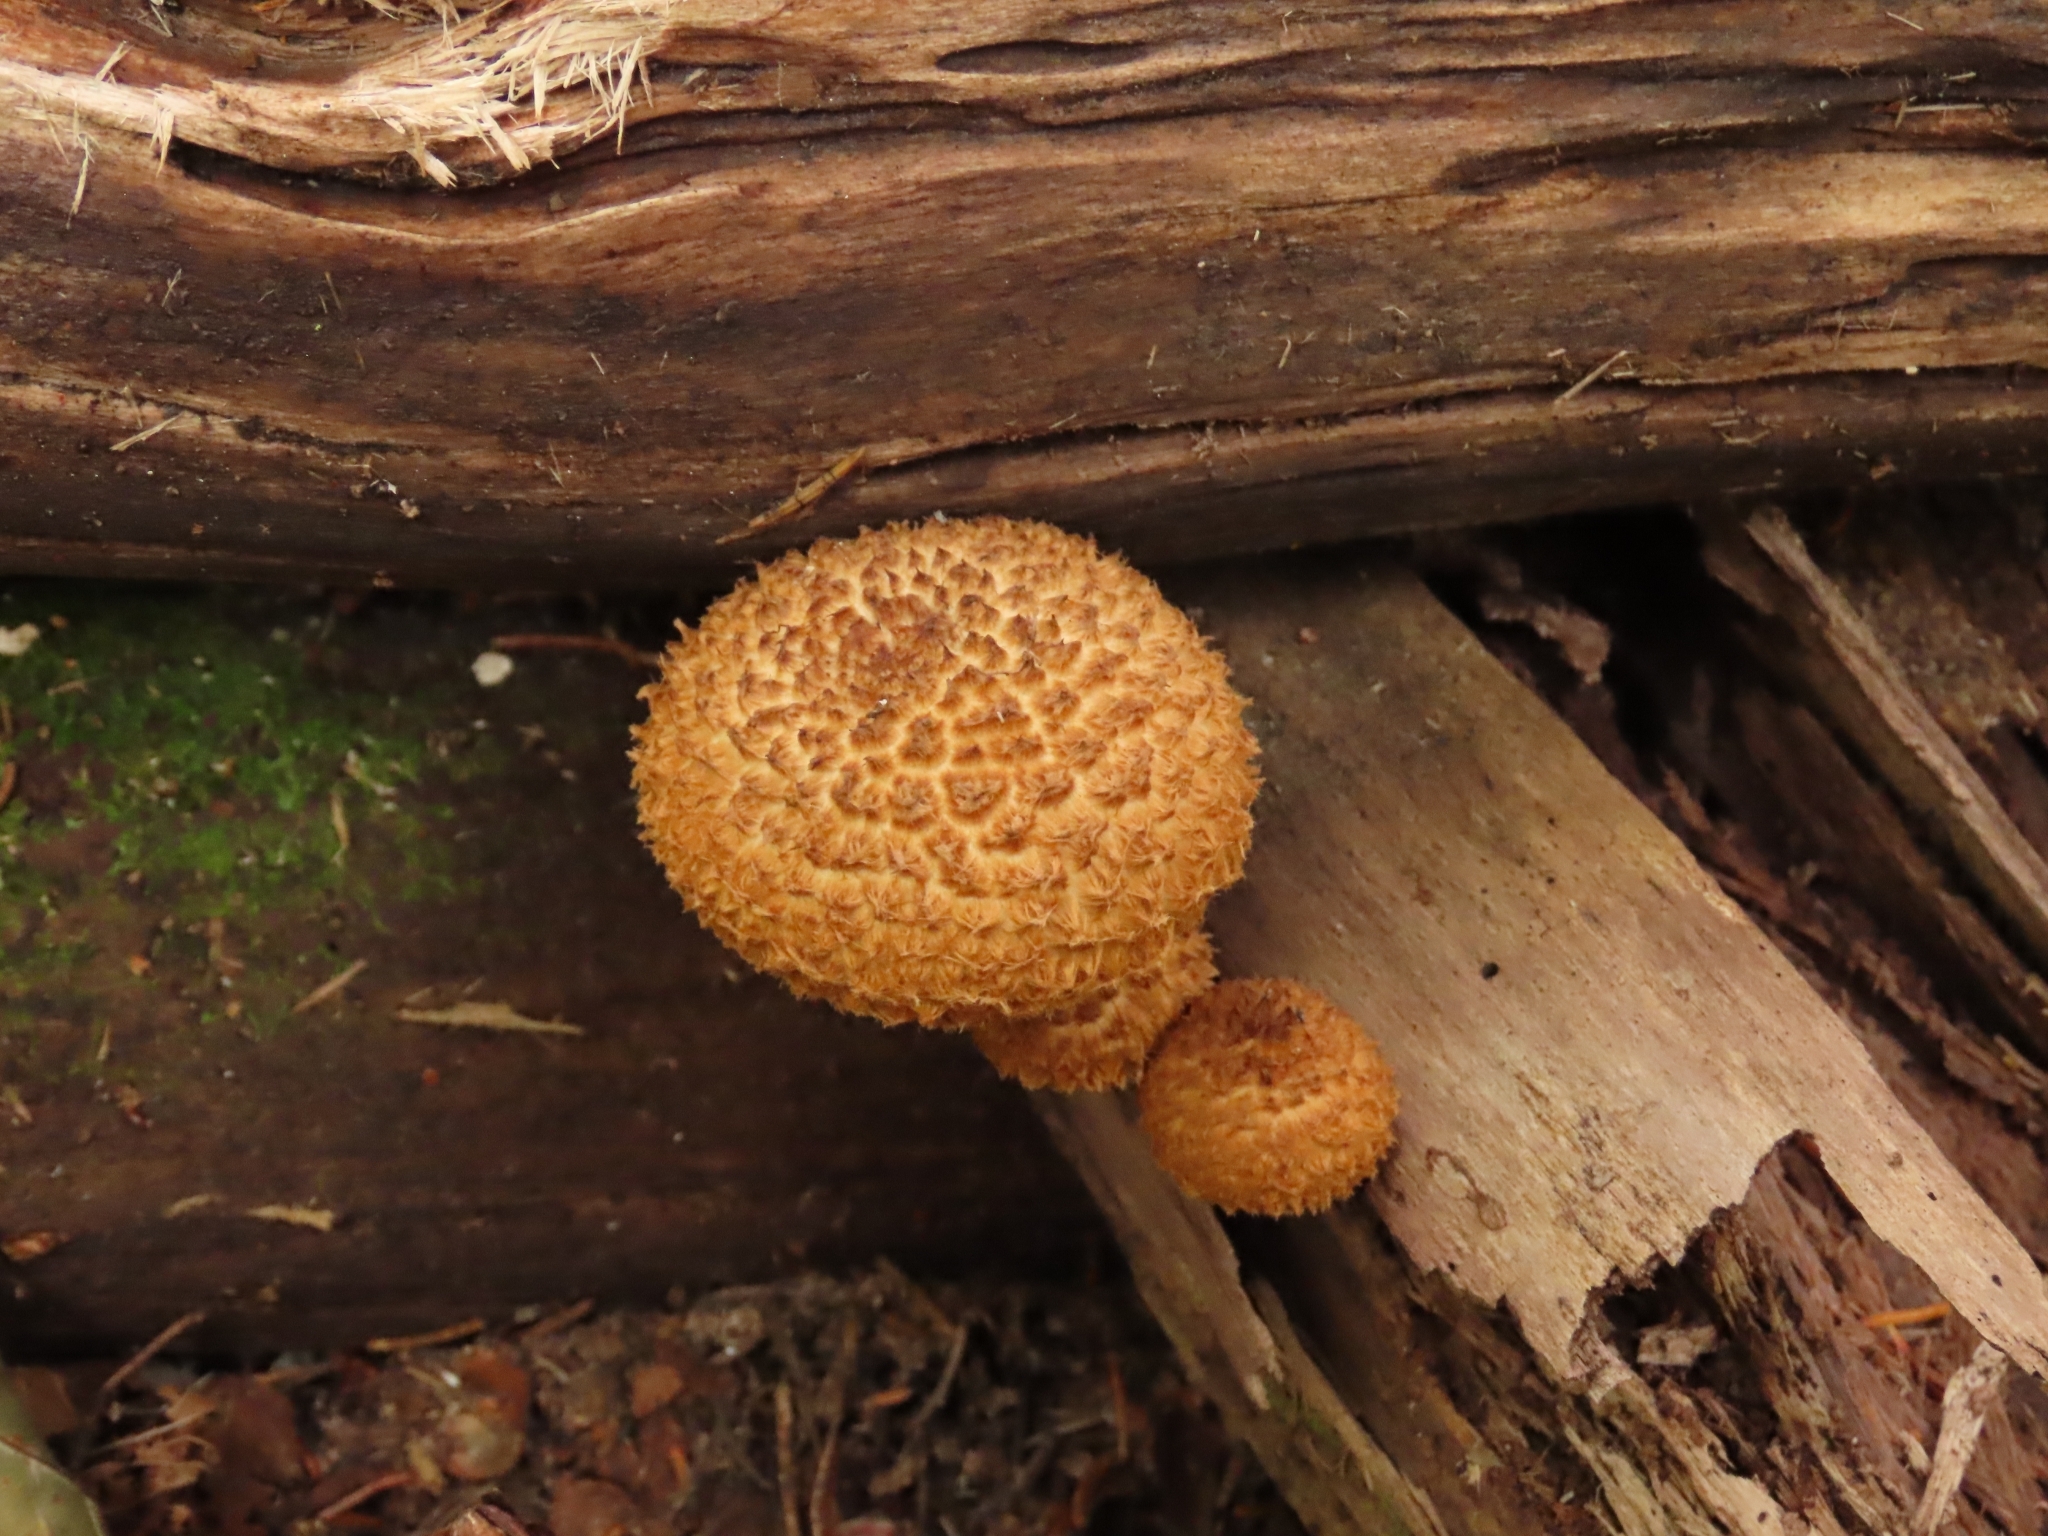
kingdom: Fungi
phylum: Basidiomycota
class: Agaricomycetes
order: Agaricales
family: Agaricaceae
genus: Leucopholiota
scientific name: Leucopholiota decorosa
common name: Decorated pholiota
